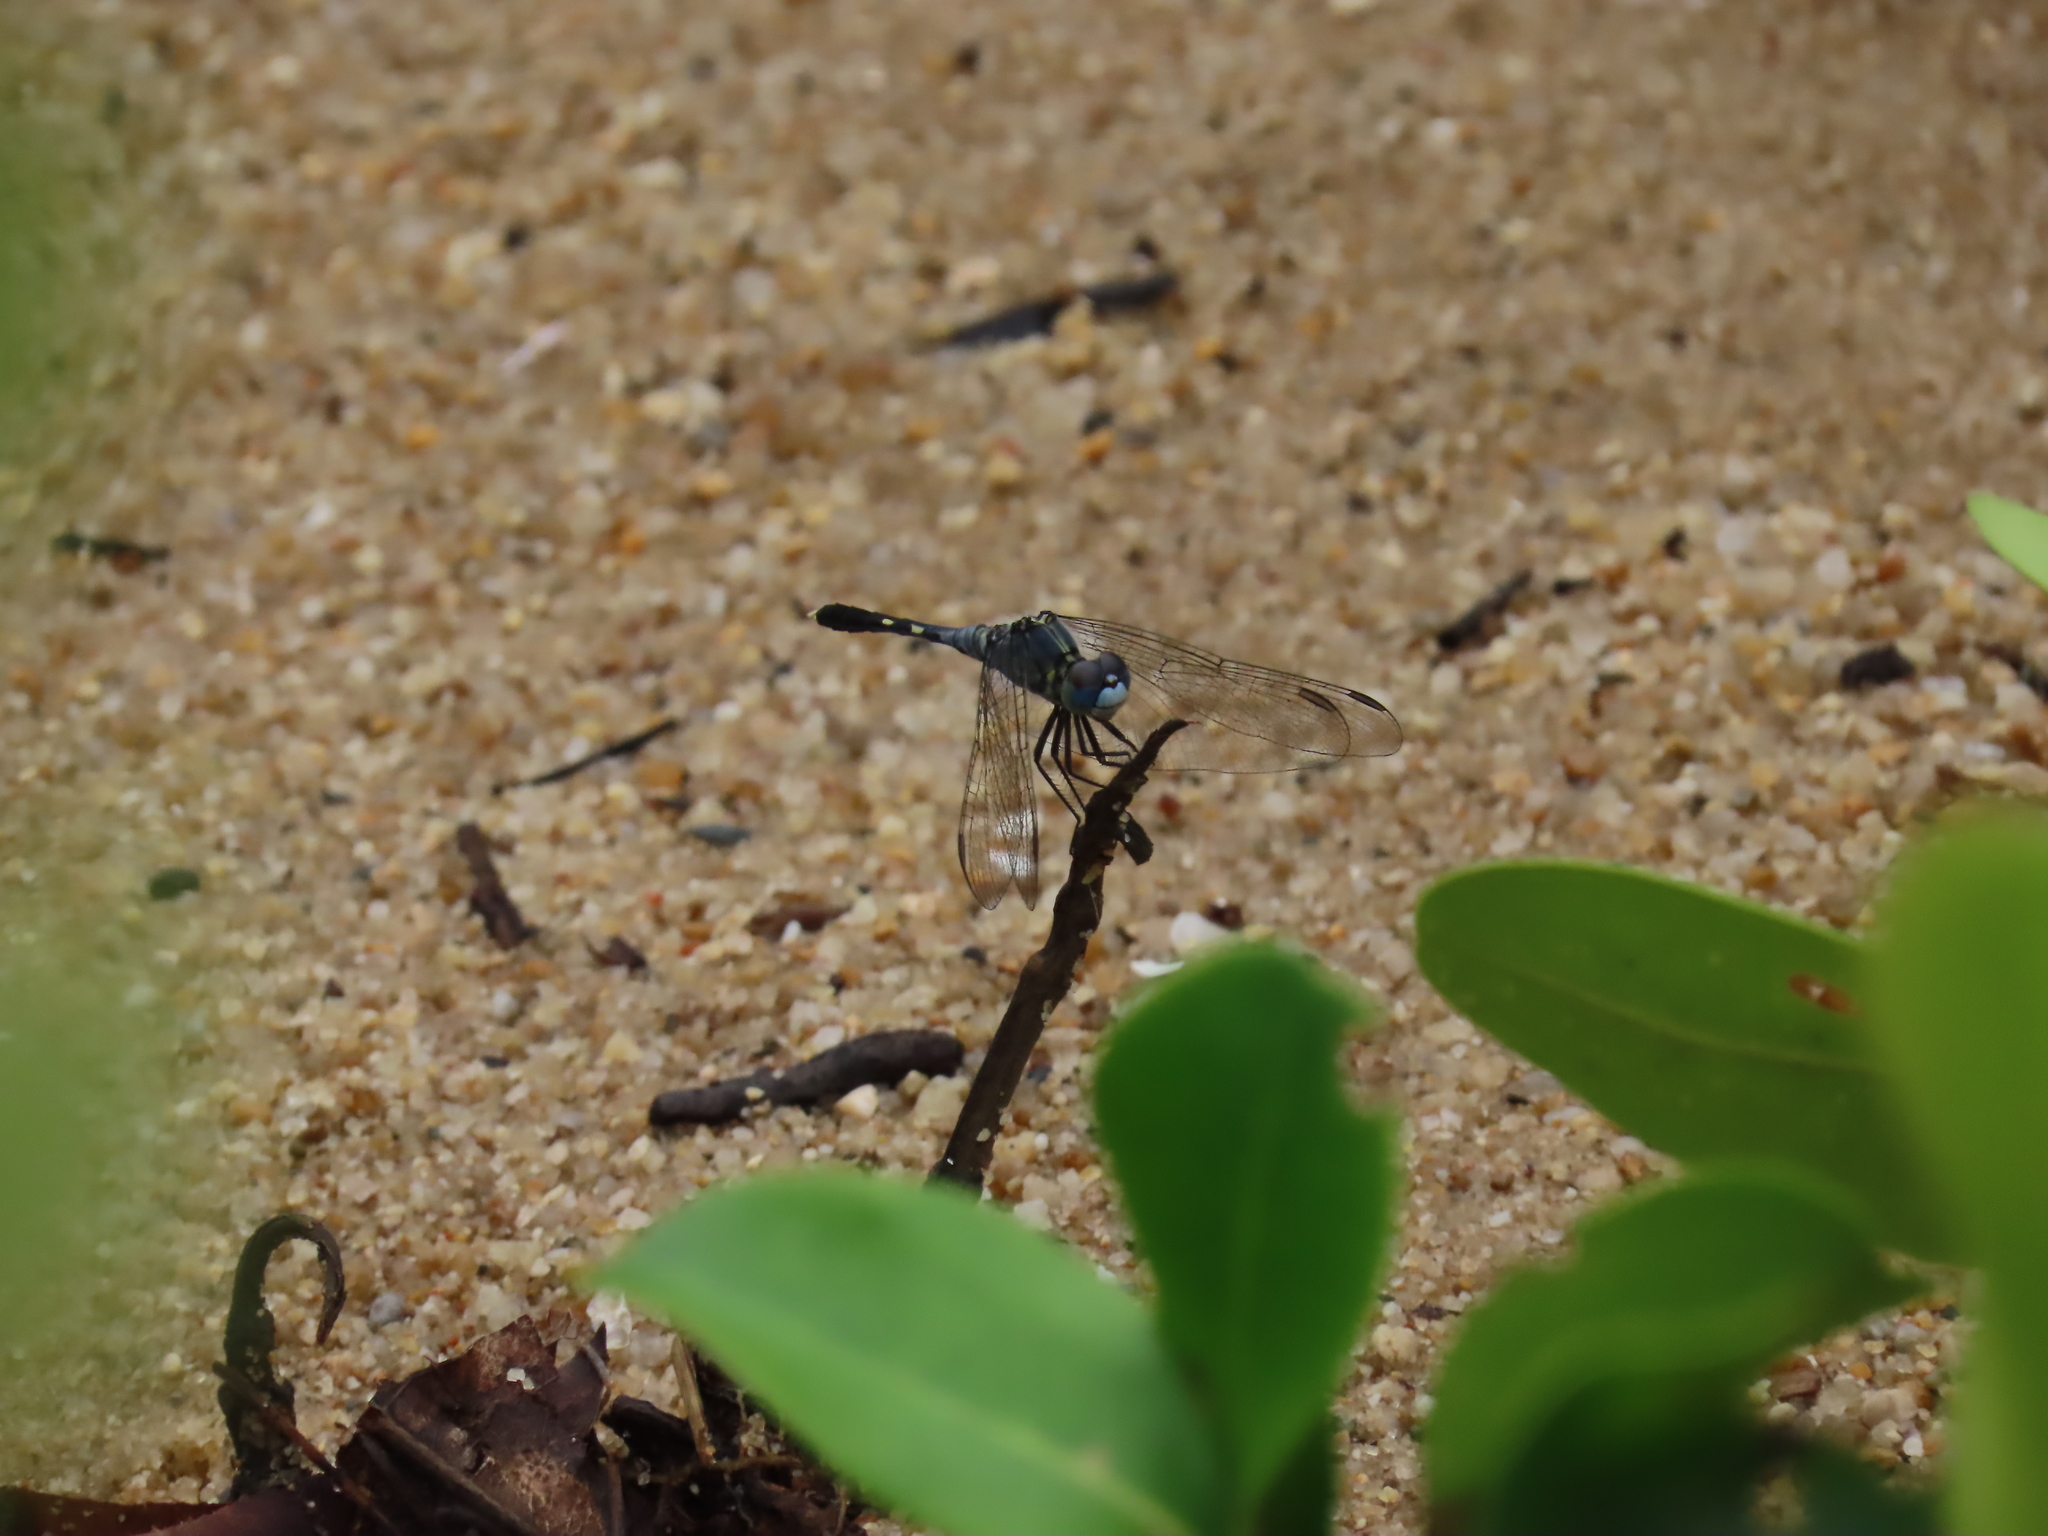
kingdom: Animalia
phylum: Arthropoda
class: Insecta
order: Odonata
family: Libellulidae
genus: Diplacodes
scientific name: Diplacodes trivialis
